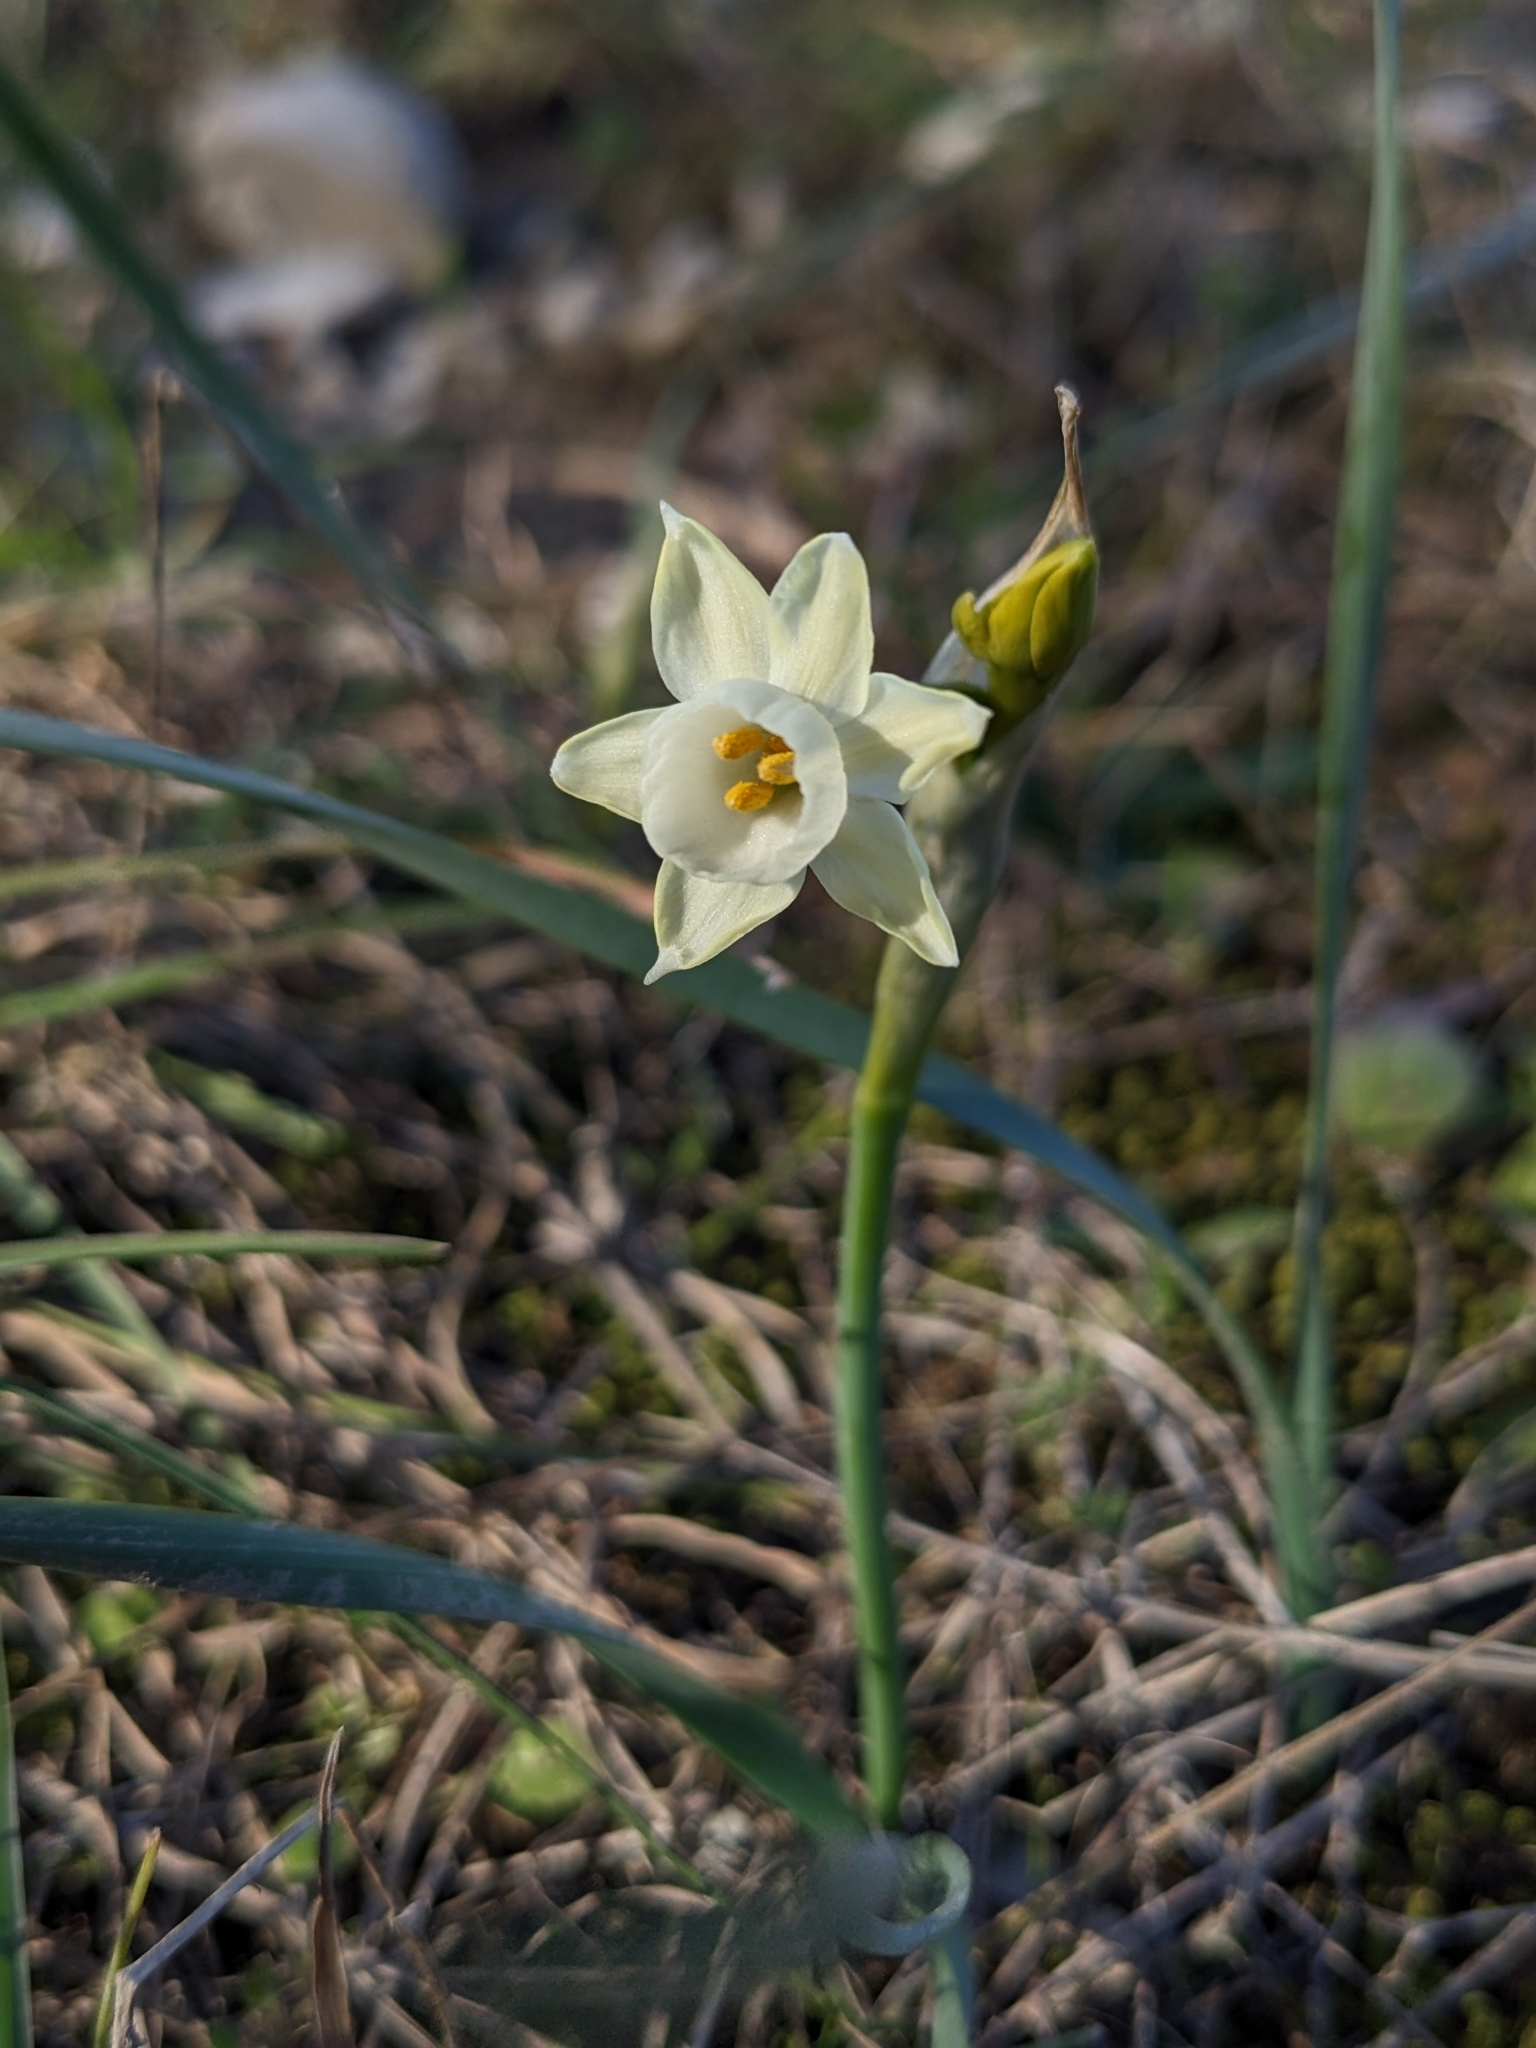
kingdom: Plantae
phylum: Tracheophyta
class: Liliopsida
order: Asparagales
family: Amaryllidaceae
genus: Narcissus
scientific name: Narcissus dubius
